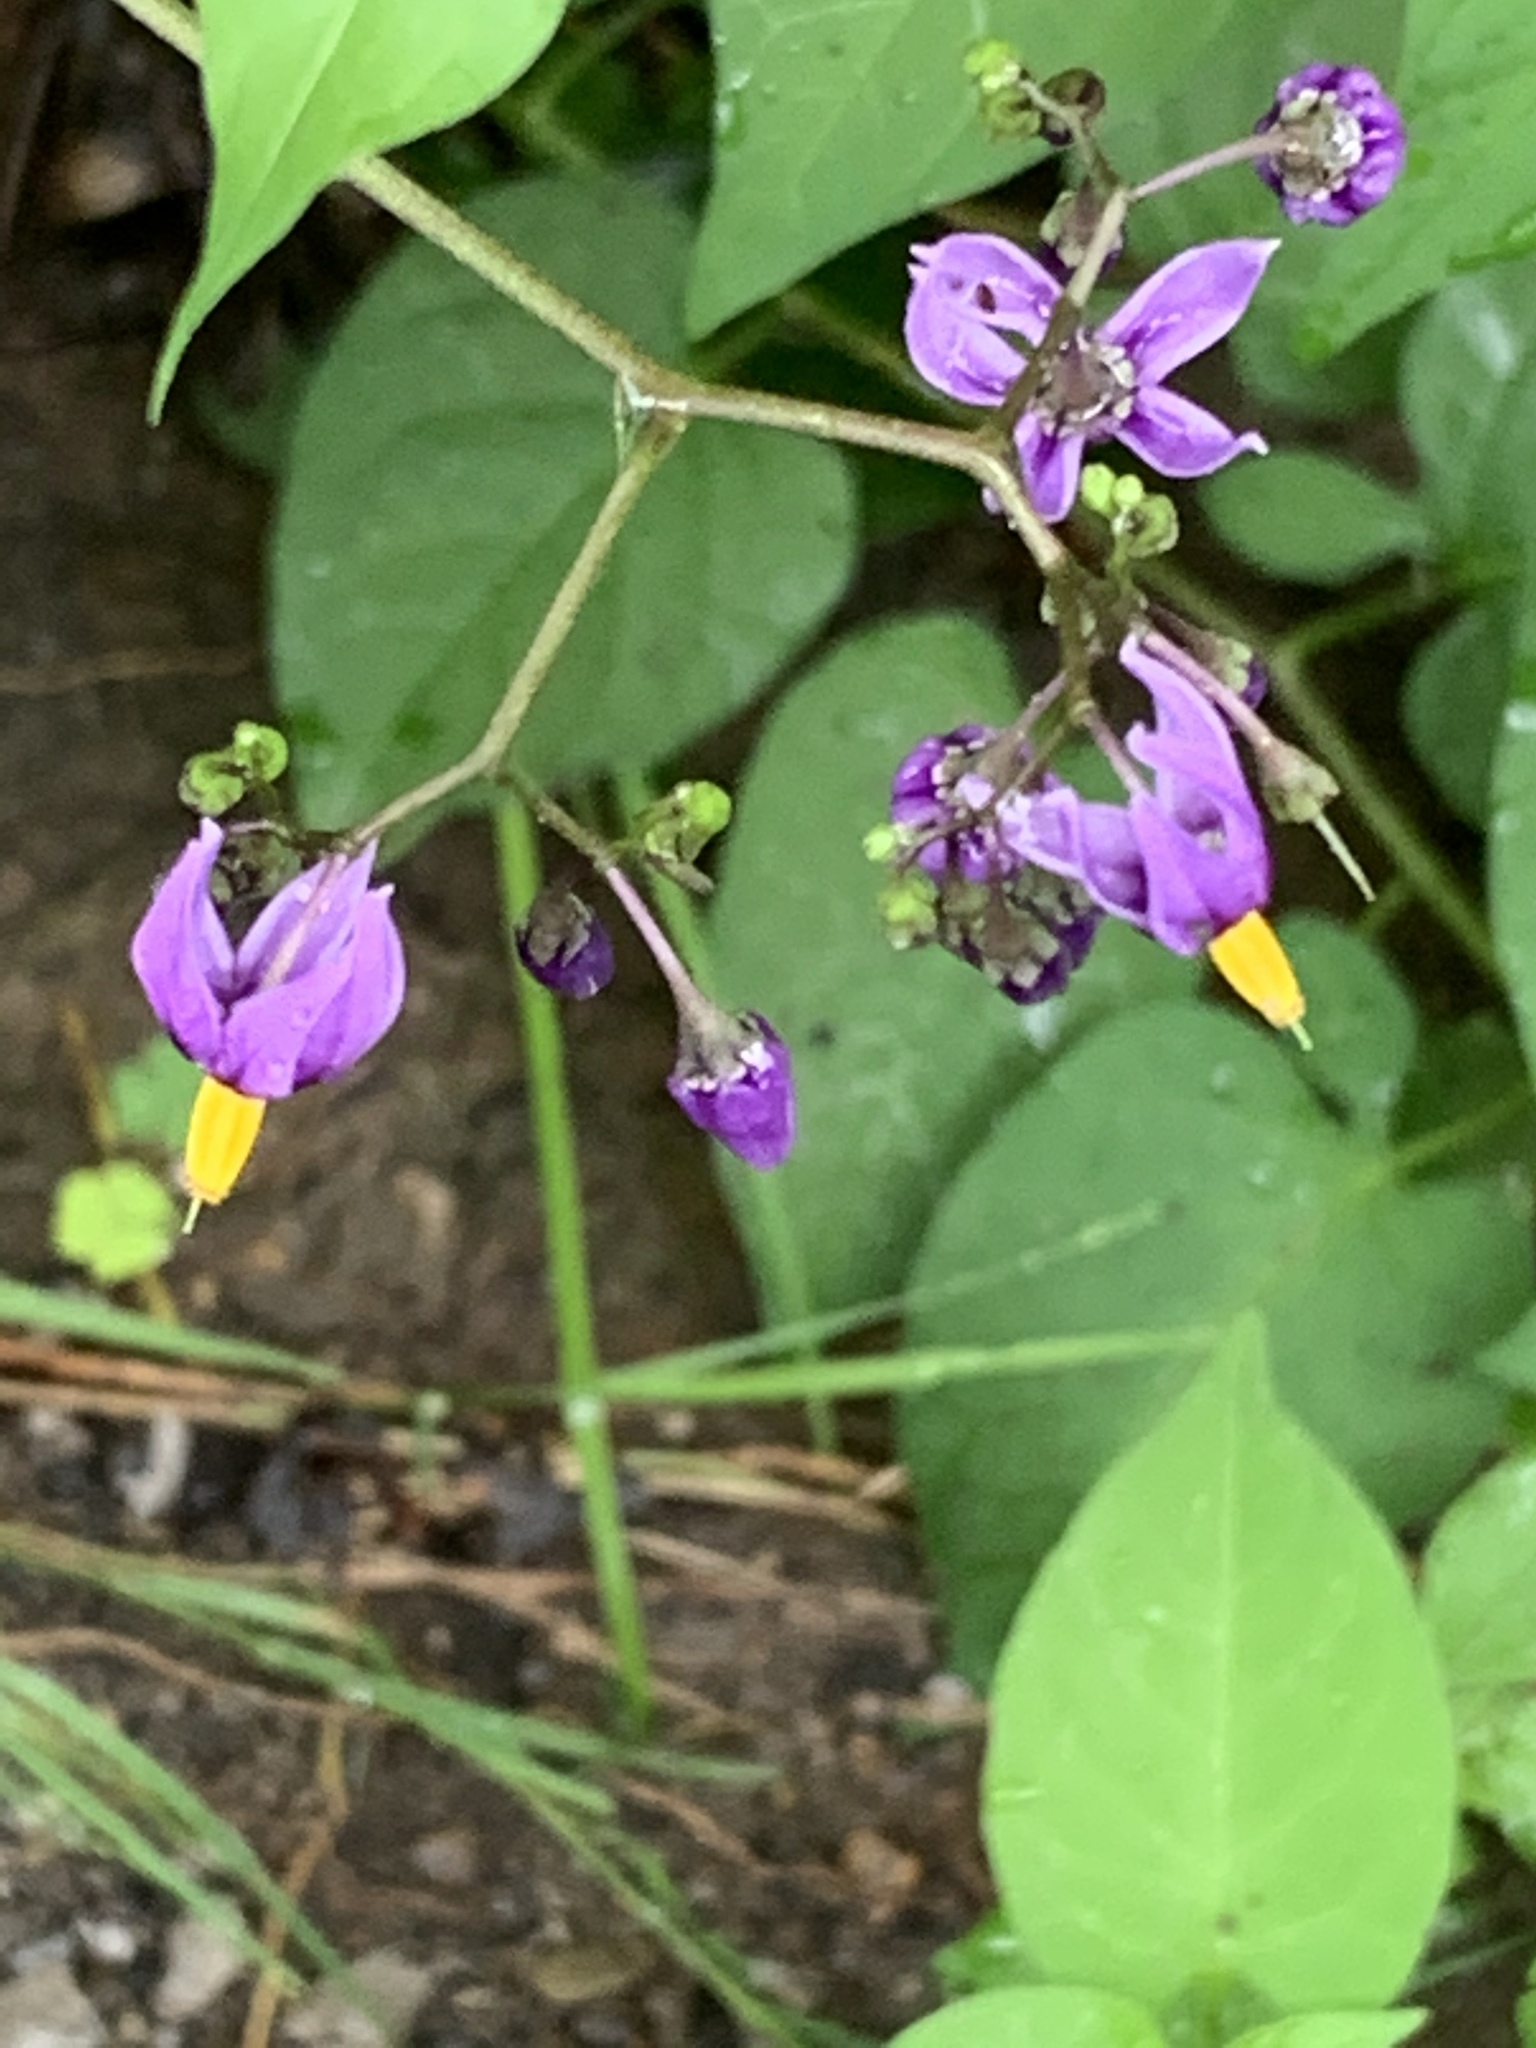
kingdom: Plantae
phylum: Tracheophyta
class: Magnoliopsida
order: Solanales
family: Solanaceae
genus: Solanum
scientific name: Solanum dulcamara
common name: Climbing nightshade
